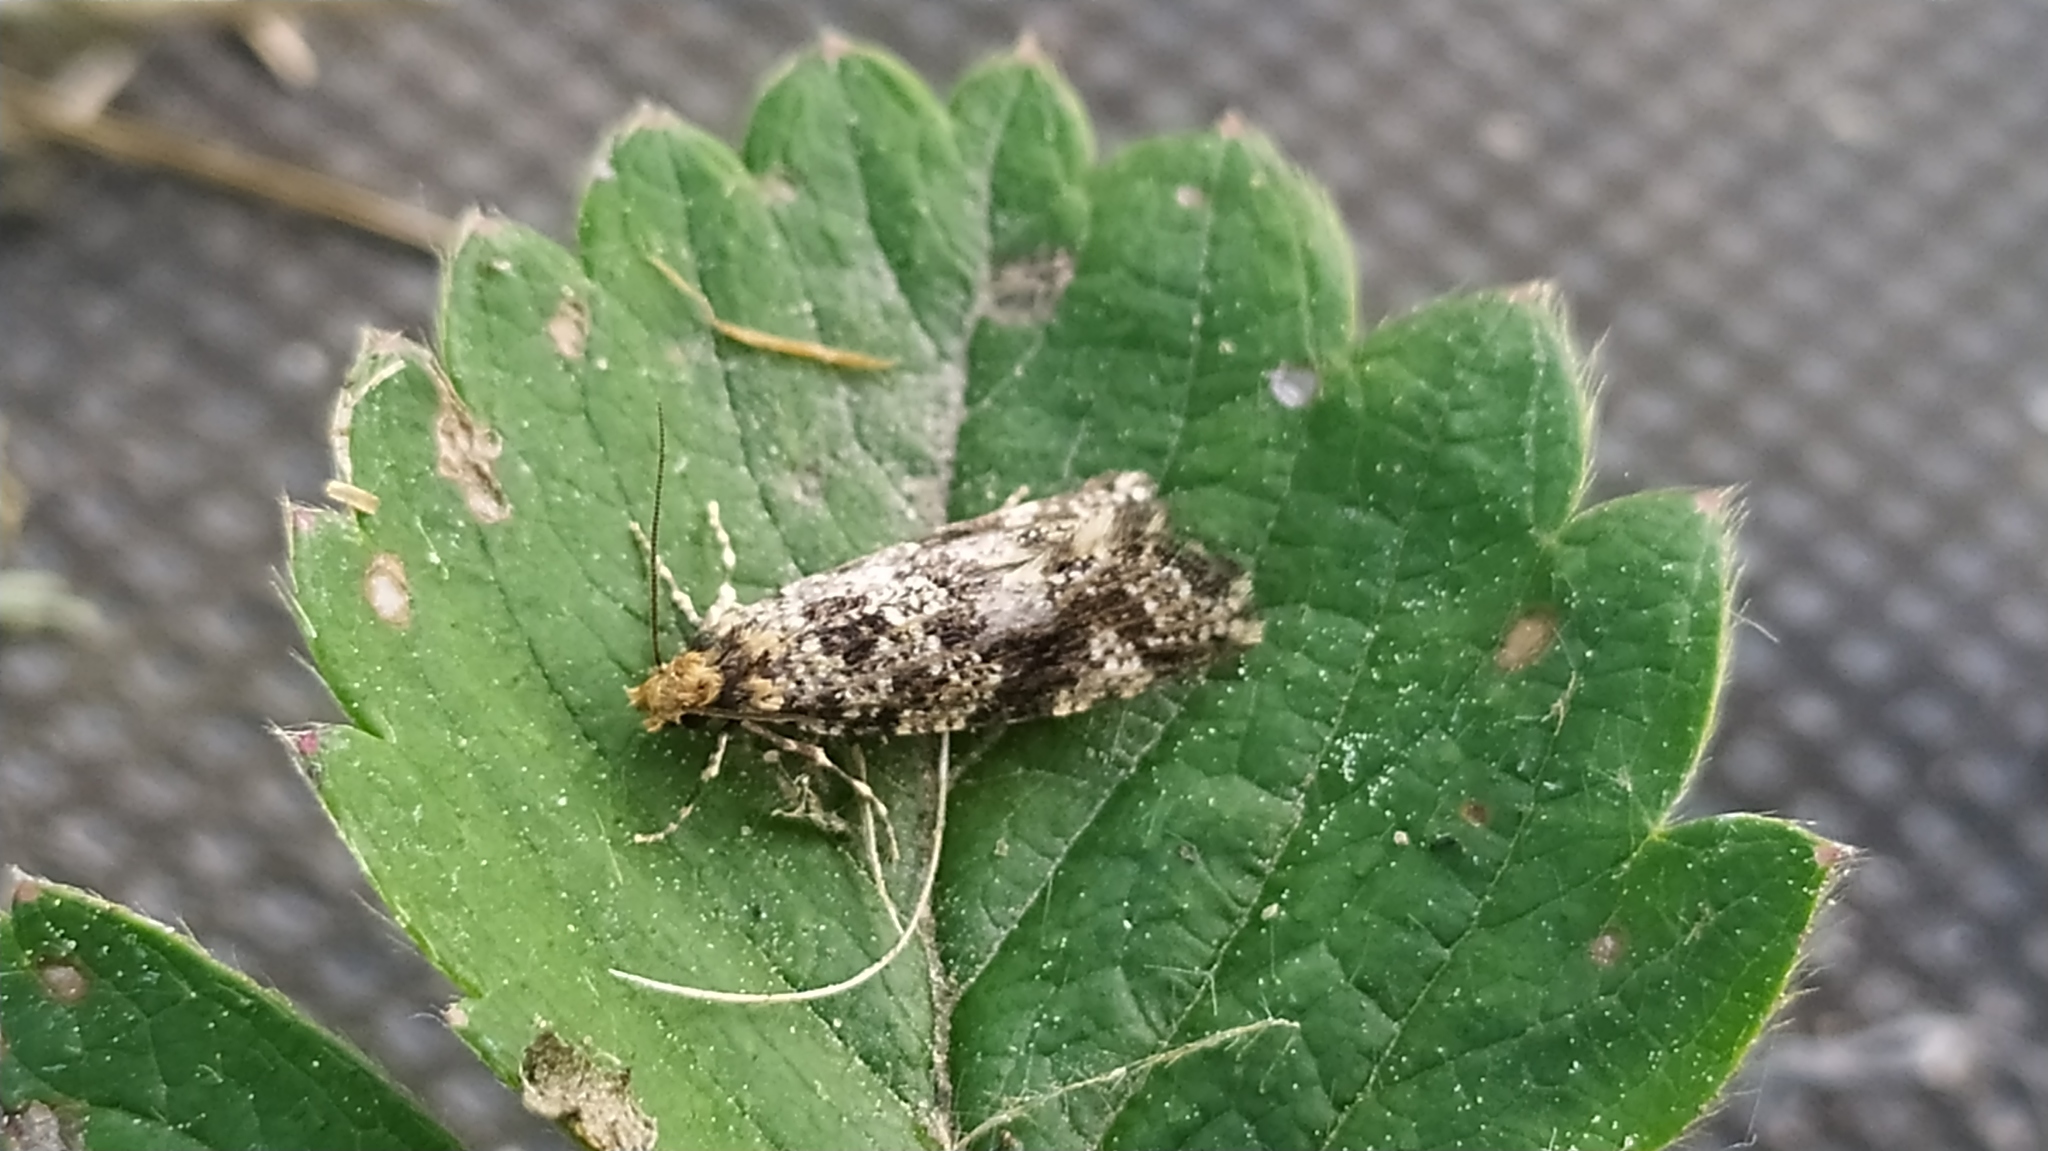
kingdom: Animalia
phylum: Arthropoda
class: Insecta
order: Lepidoptera
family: Tineidae
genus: Montescardia
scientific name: Montescardia tessulatellus
